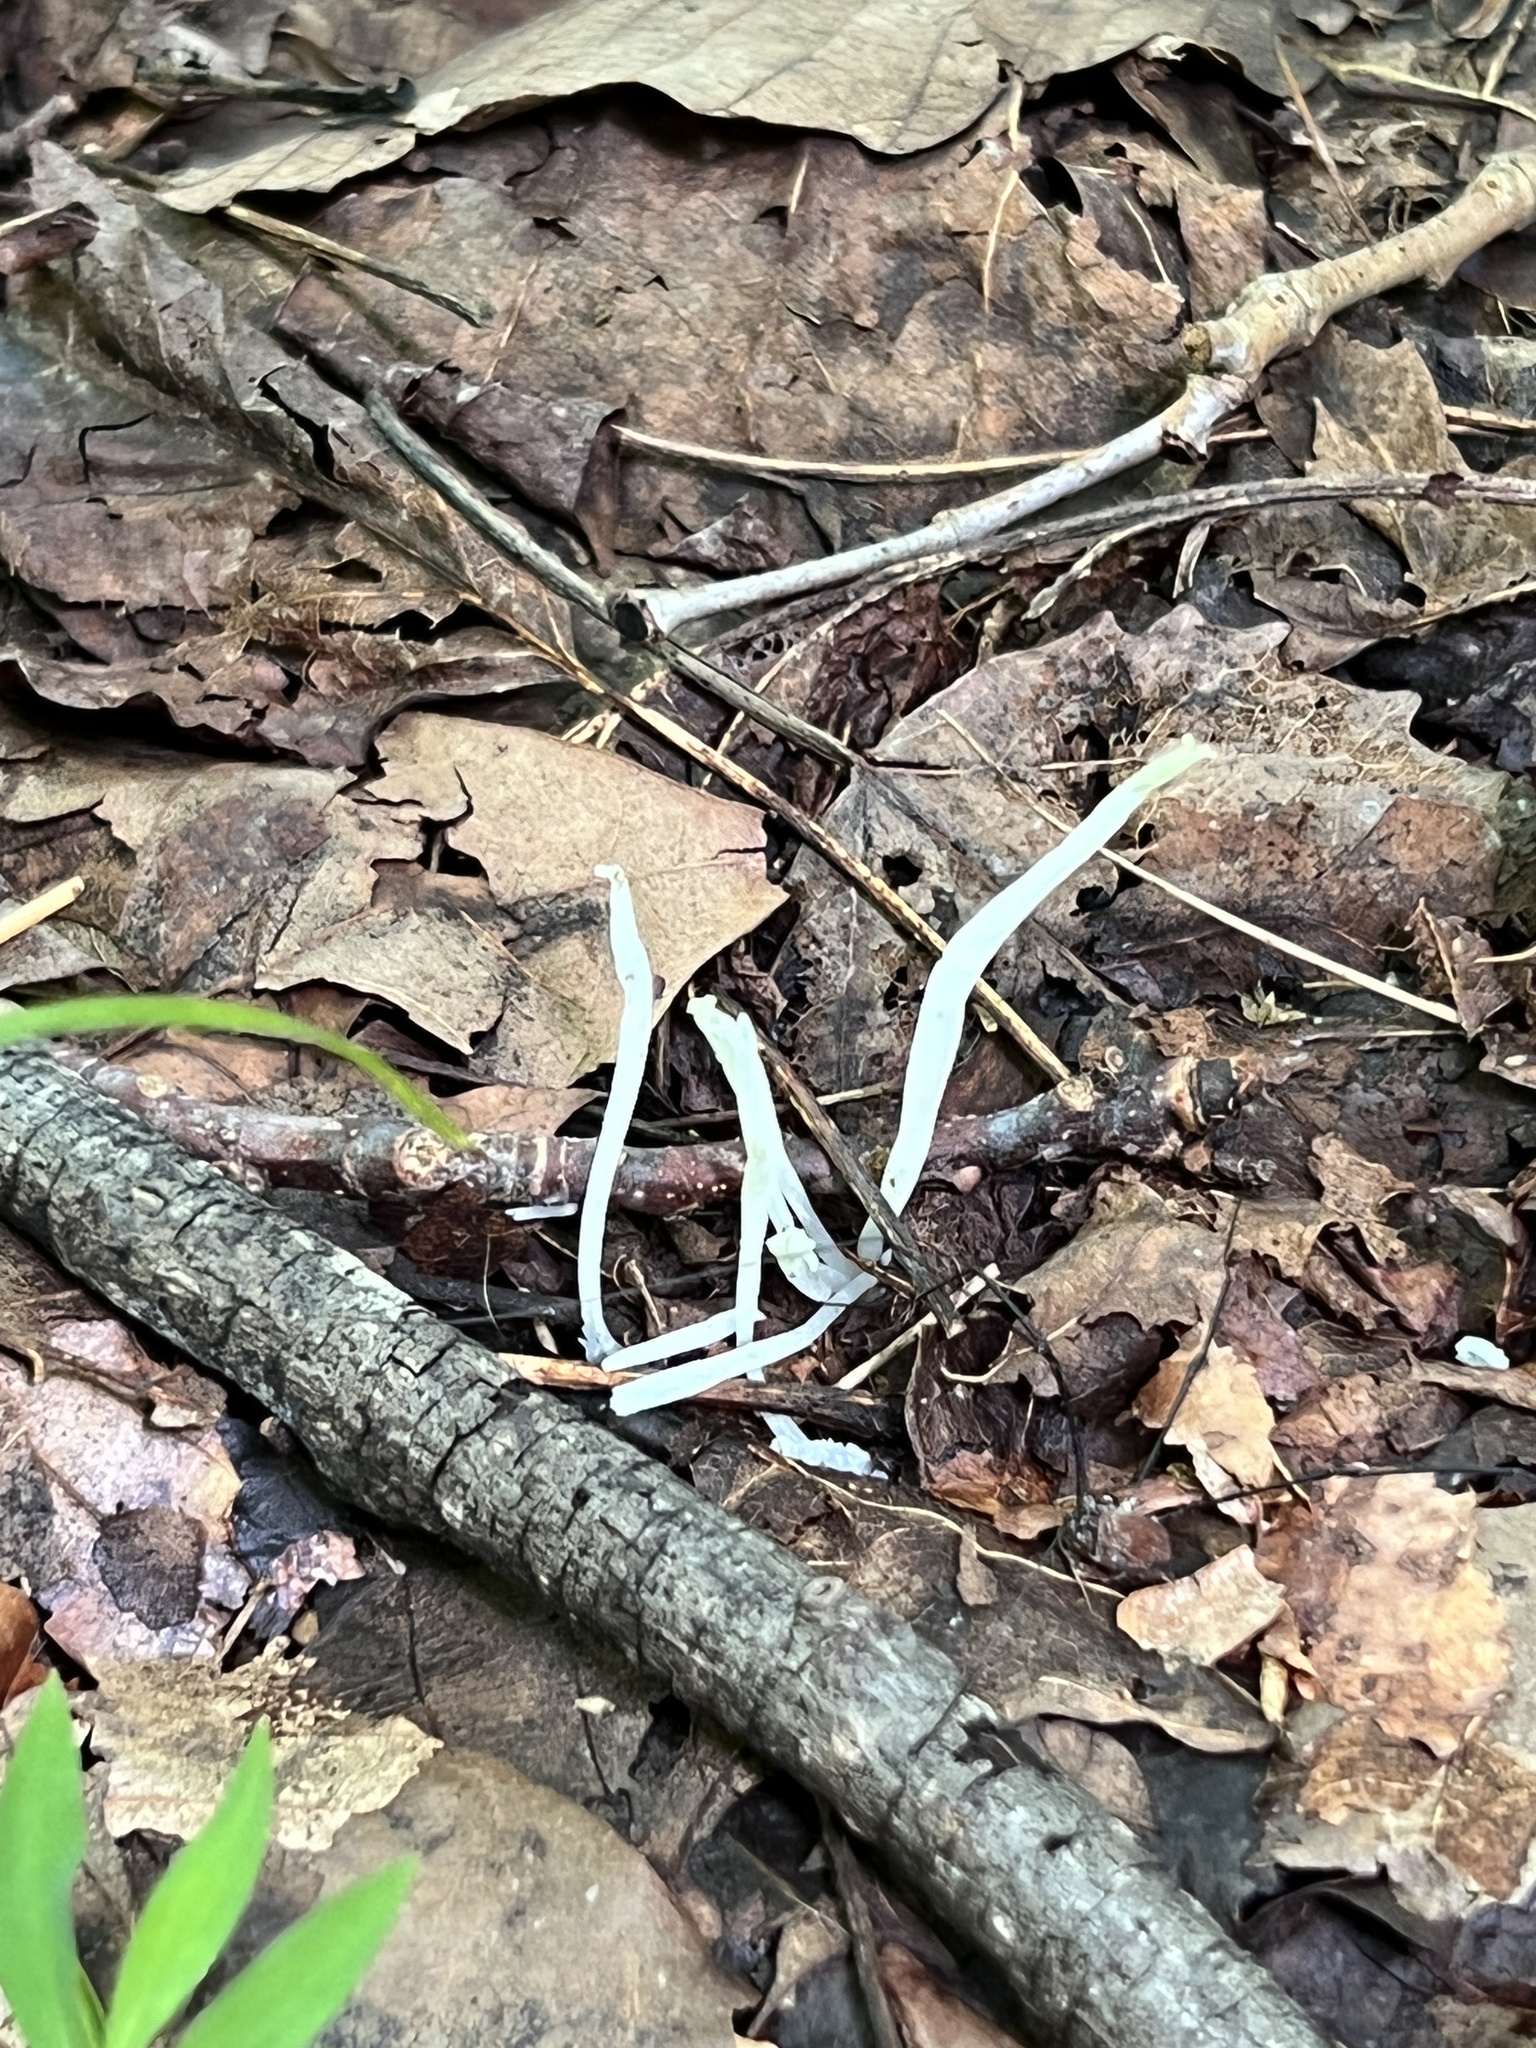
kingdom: Fungi
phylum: Basidiomycota
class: Agaricomycetes
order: Agaricales
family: Clavariaceae
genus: Clavaria
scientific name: Clavaria fragilis
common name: White spindles
